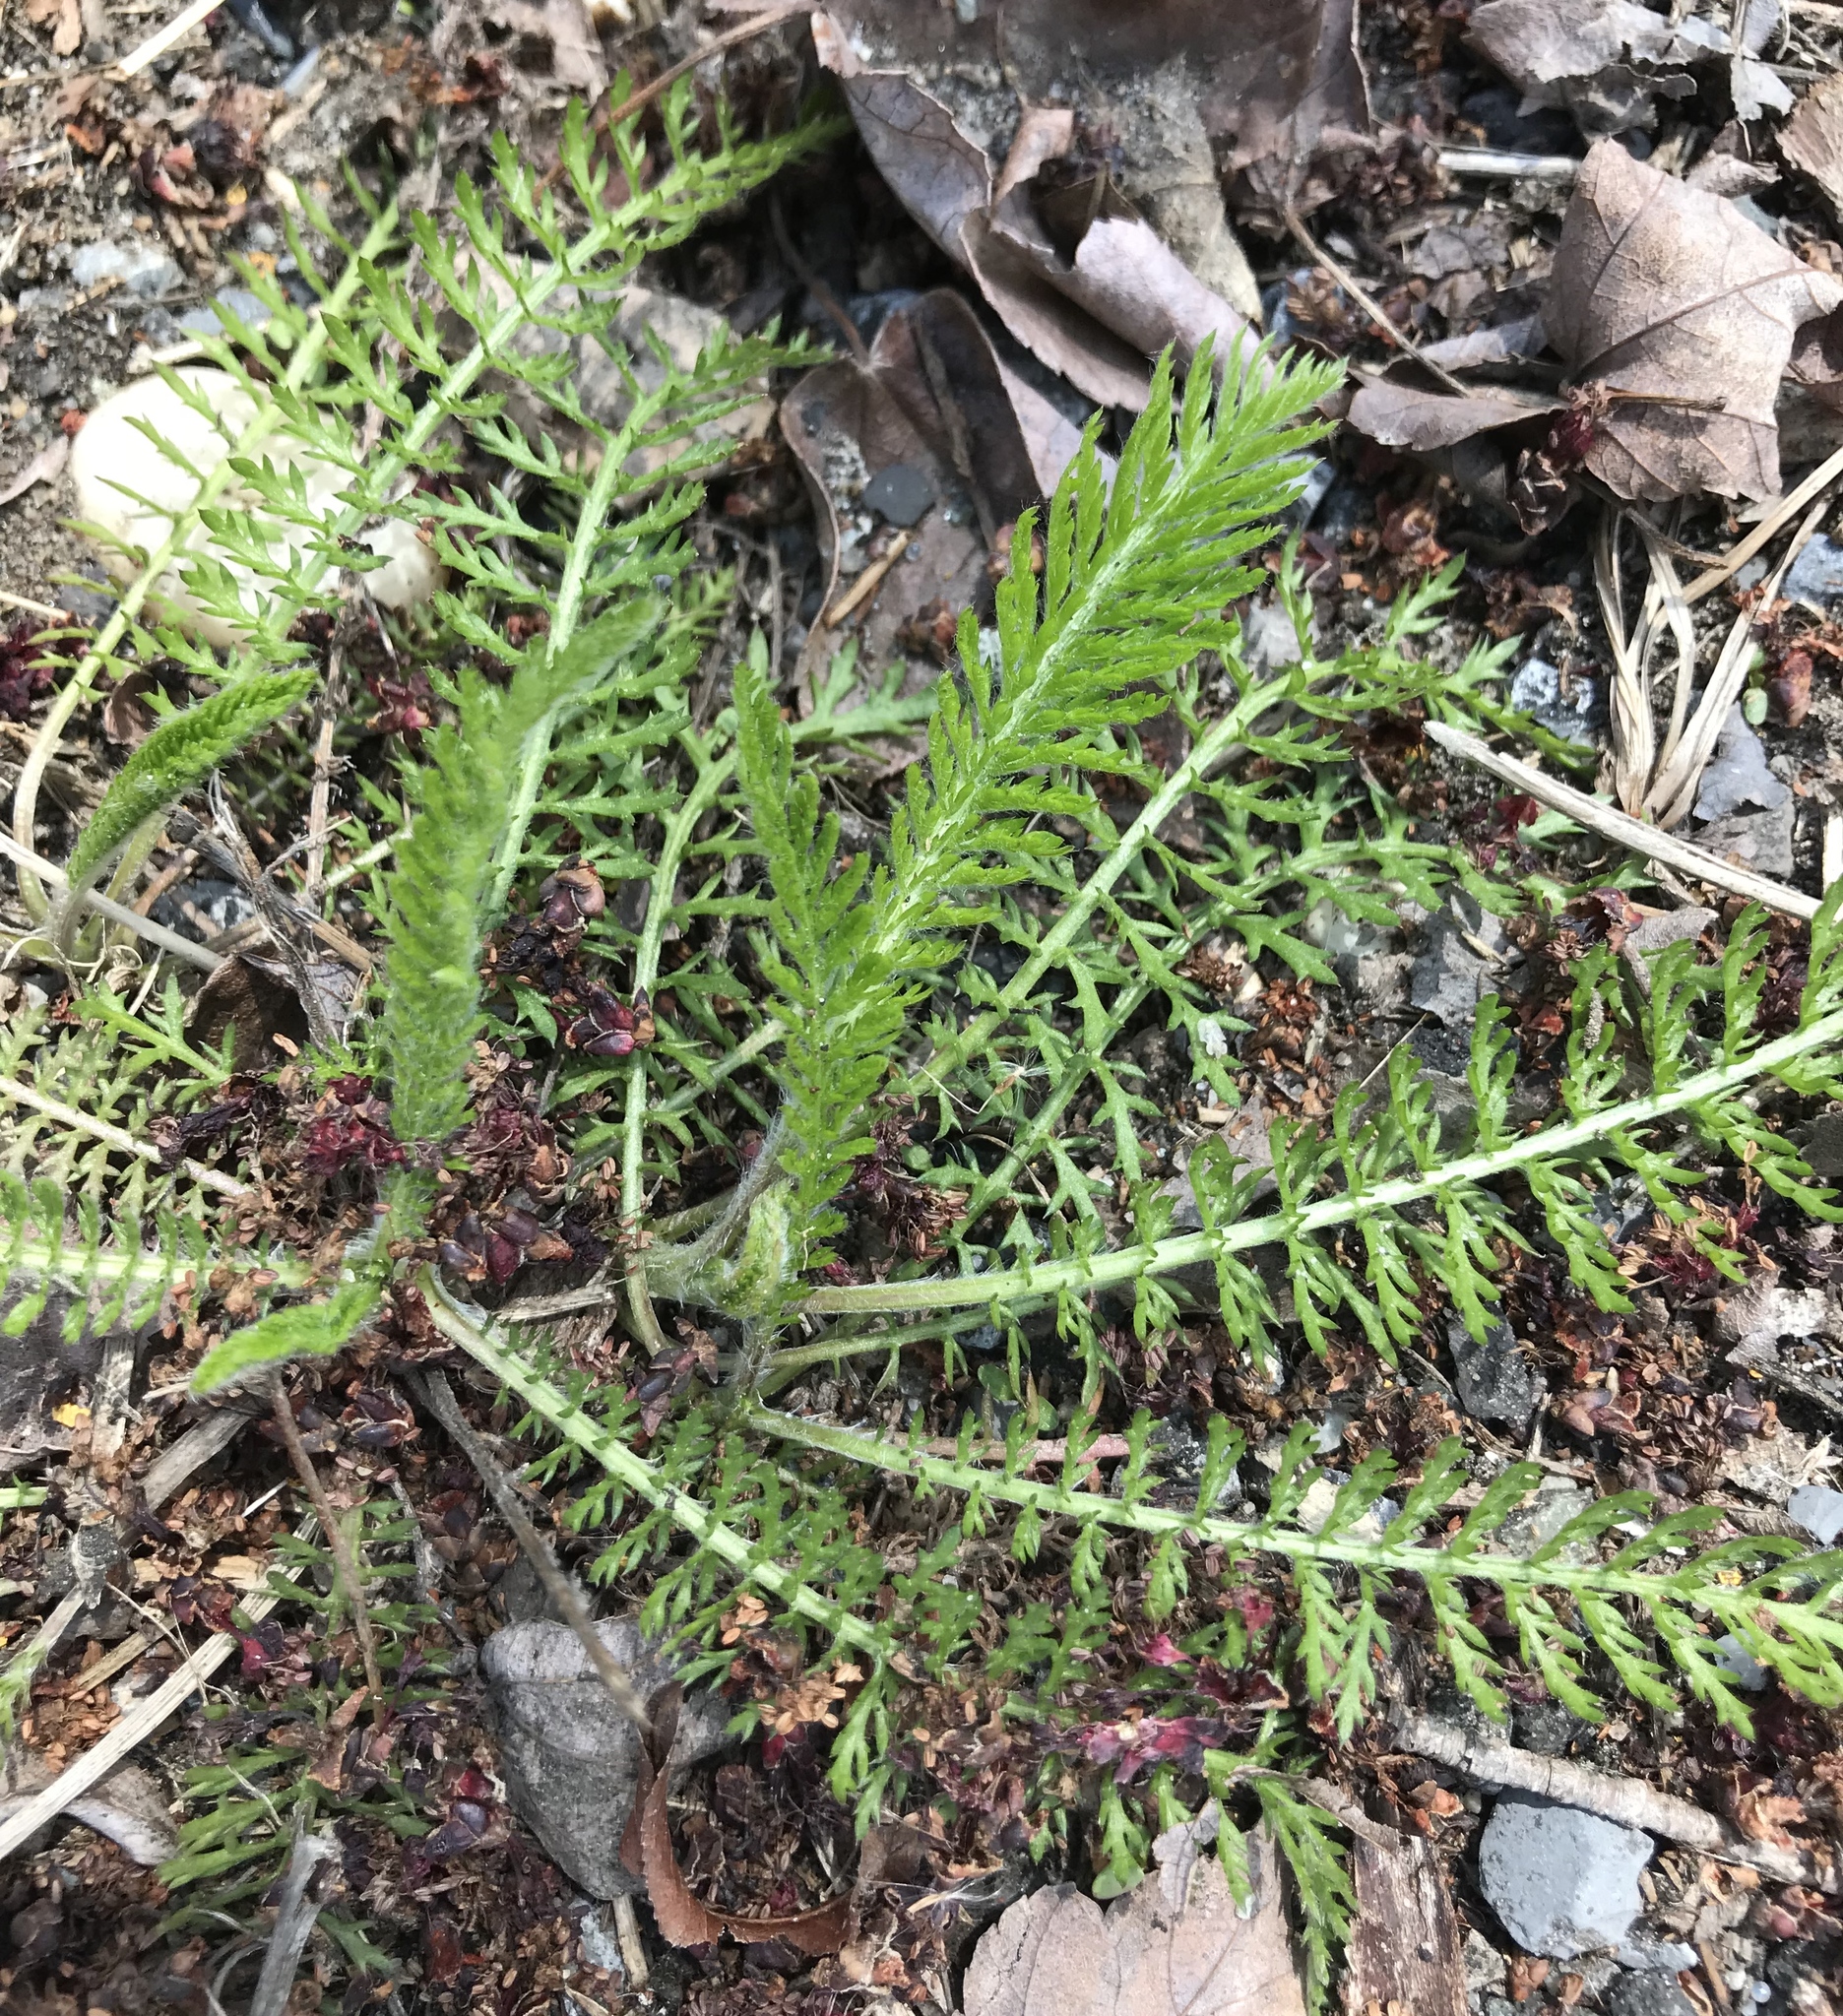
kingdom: Plantae
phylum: Tracheophyta
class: Magnoliopsida
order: Asterales
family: Asteraceae
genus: Achillea
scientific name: Achillea millefolium
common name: Yarrow
